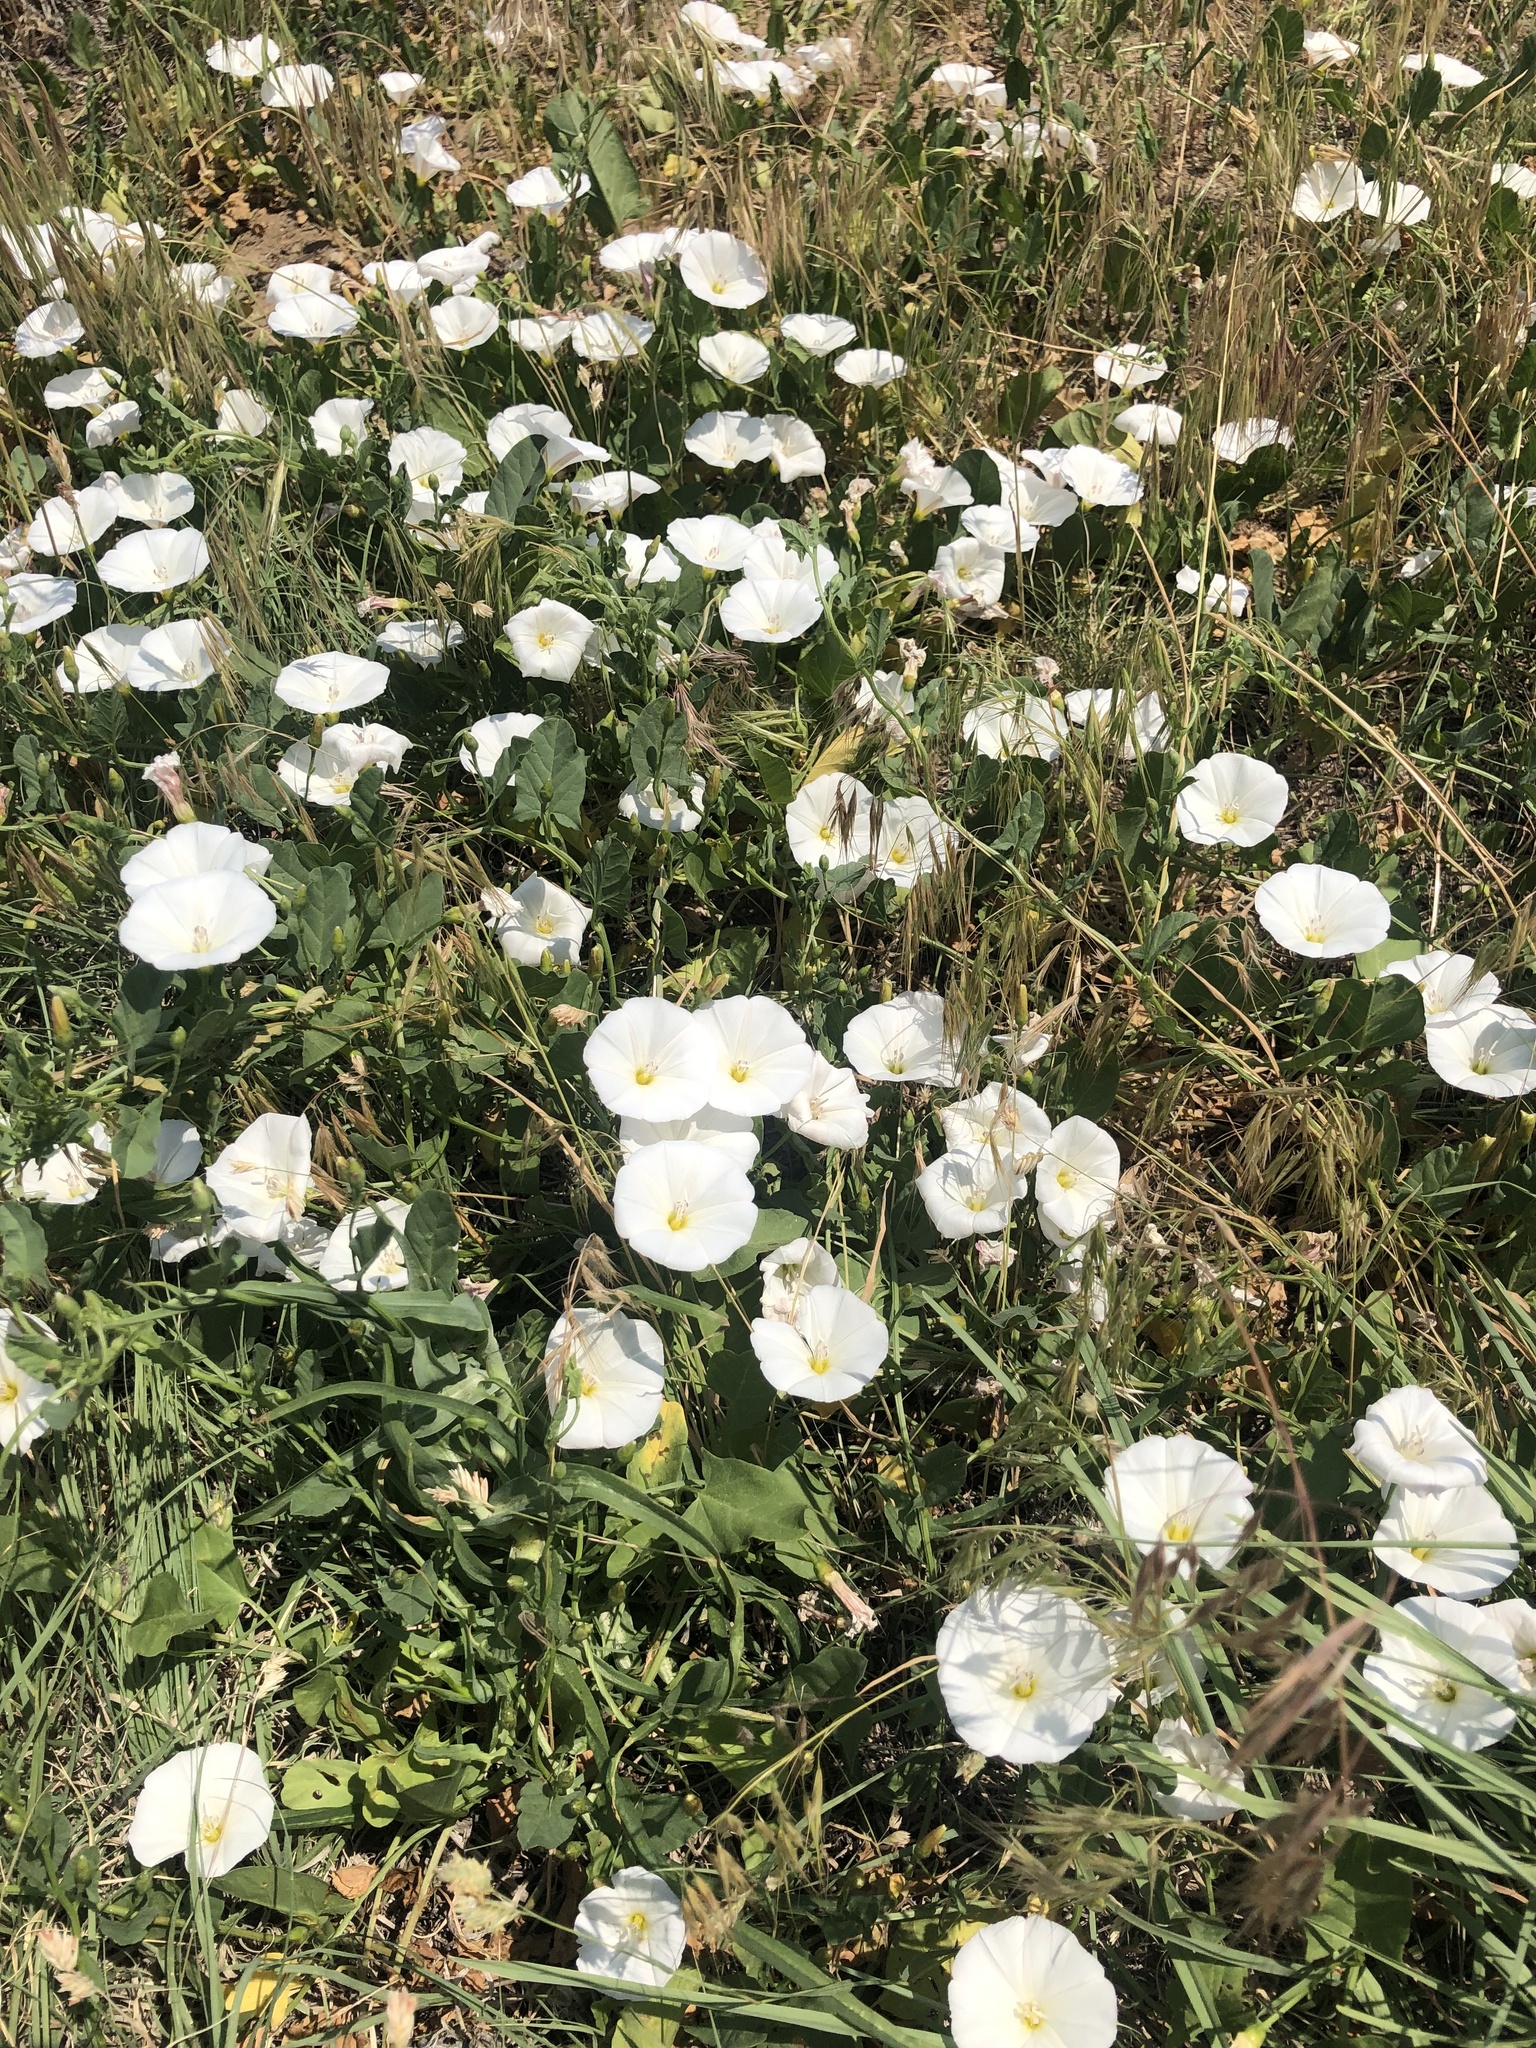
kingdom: Plantae
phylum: Tracheophyta
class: Magnoliopsida
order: Solanales
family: Convolvulaceae
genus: Convolvulus
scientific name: Convolvulus arvensis
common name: Field bindweed
